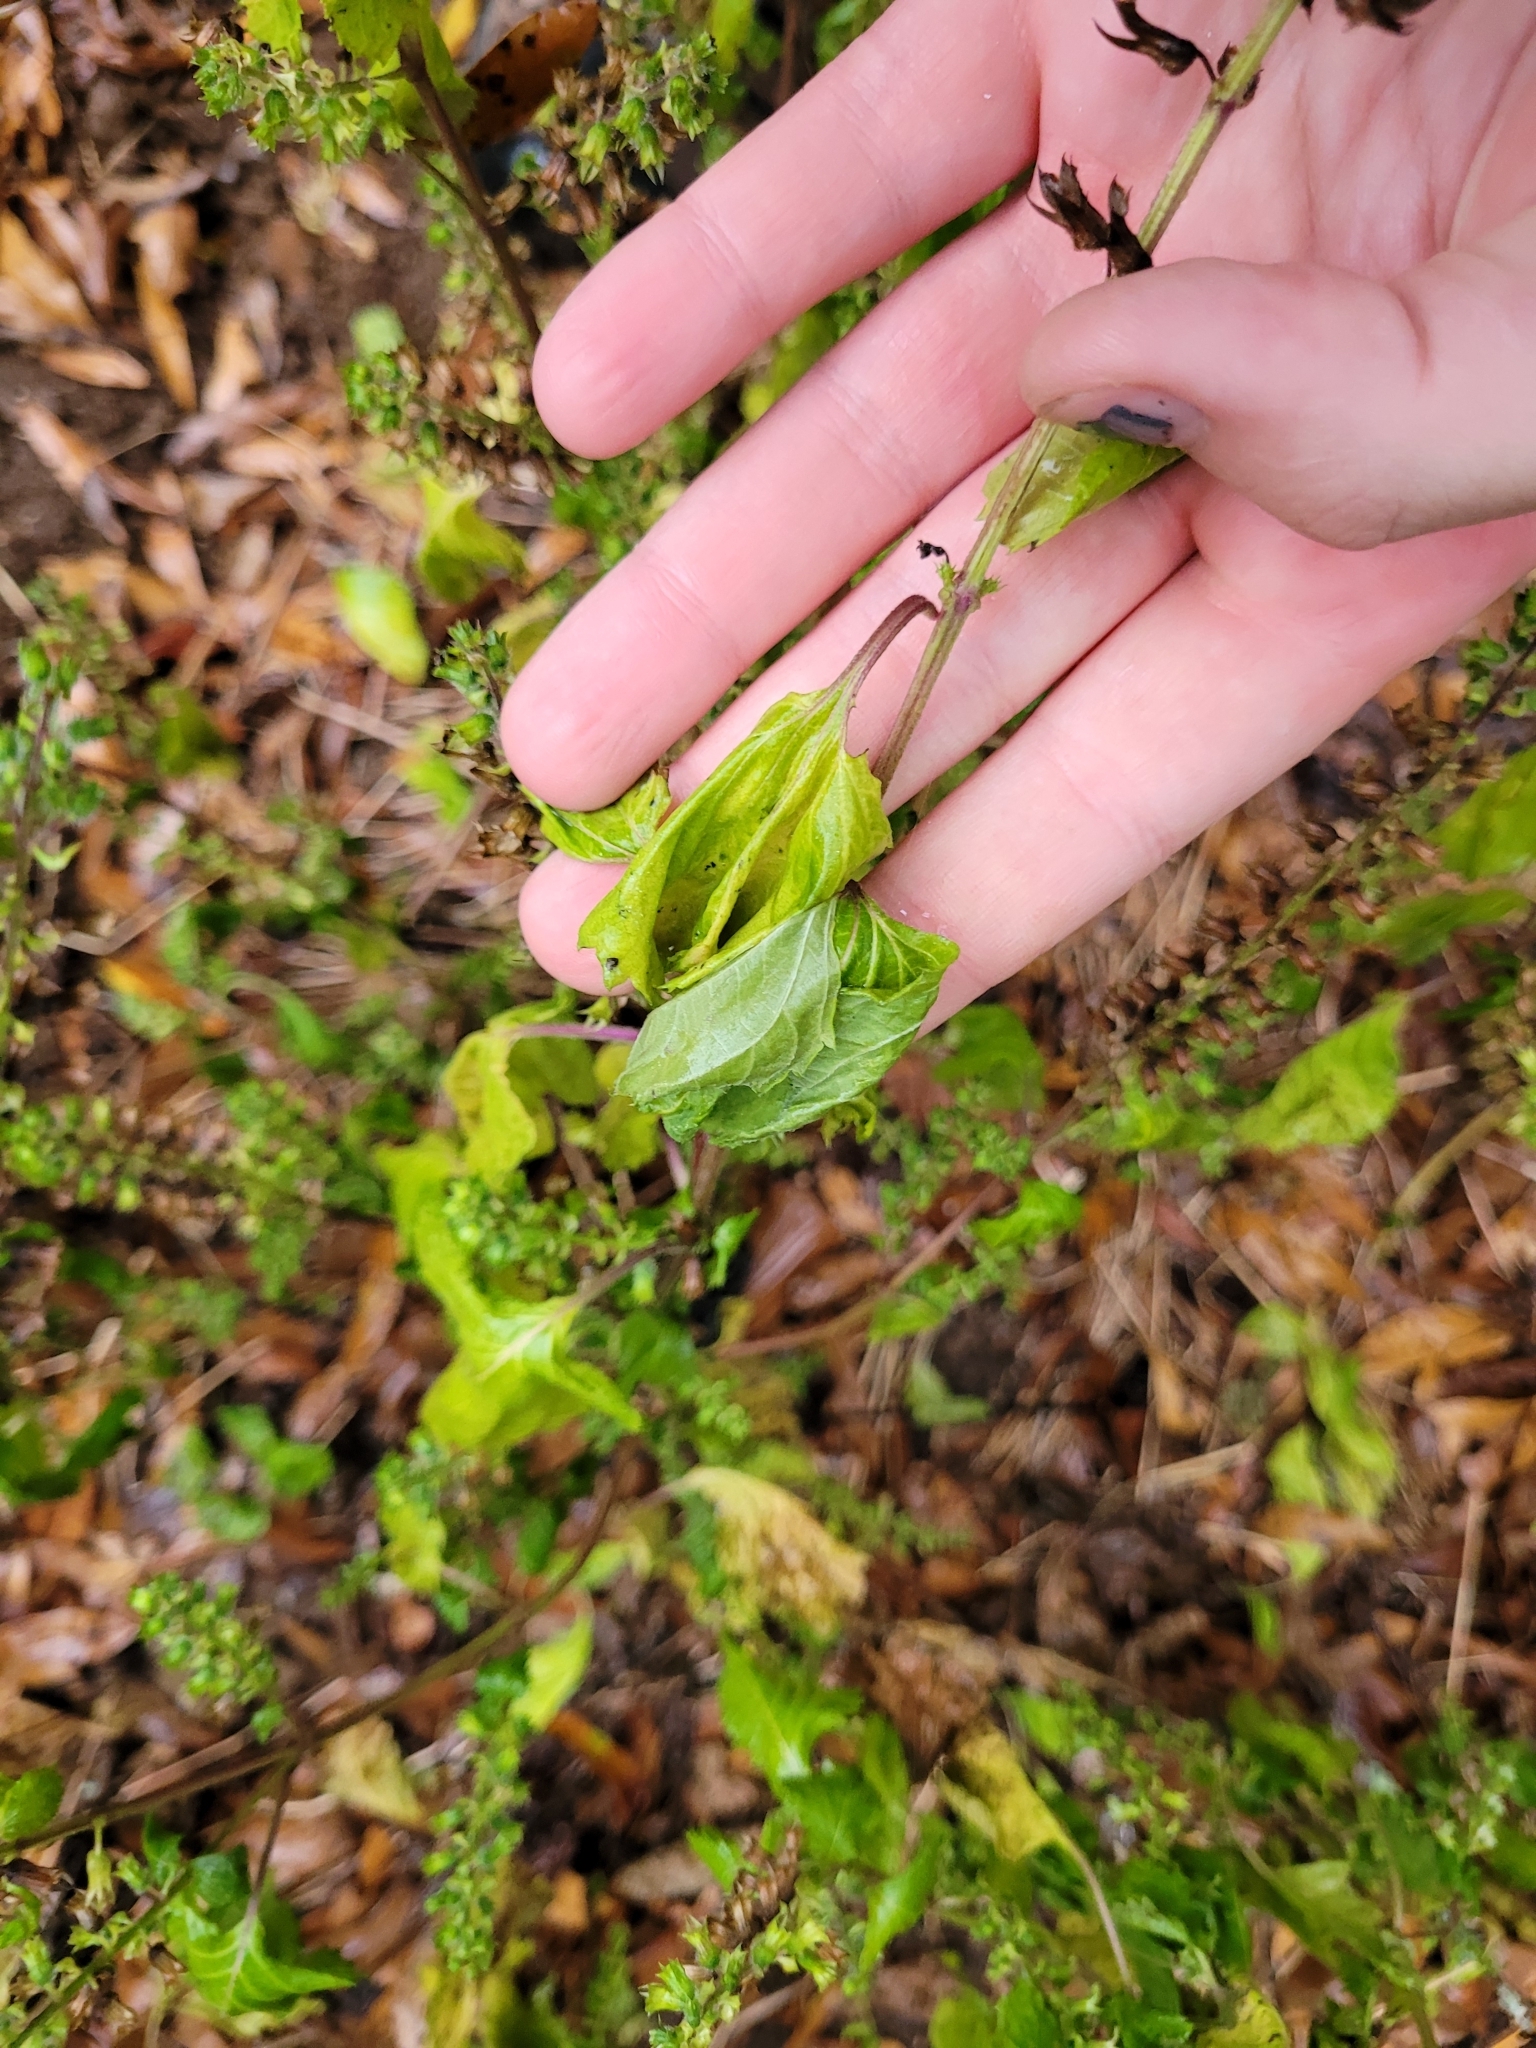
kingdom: Plantae
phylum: Tracheophyta
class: Magnoliopsida
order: Lamiales
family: Lamiaceae
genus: Perilla
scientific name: Perilla frutescens
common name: Perilla
